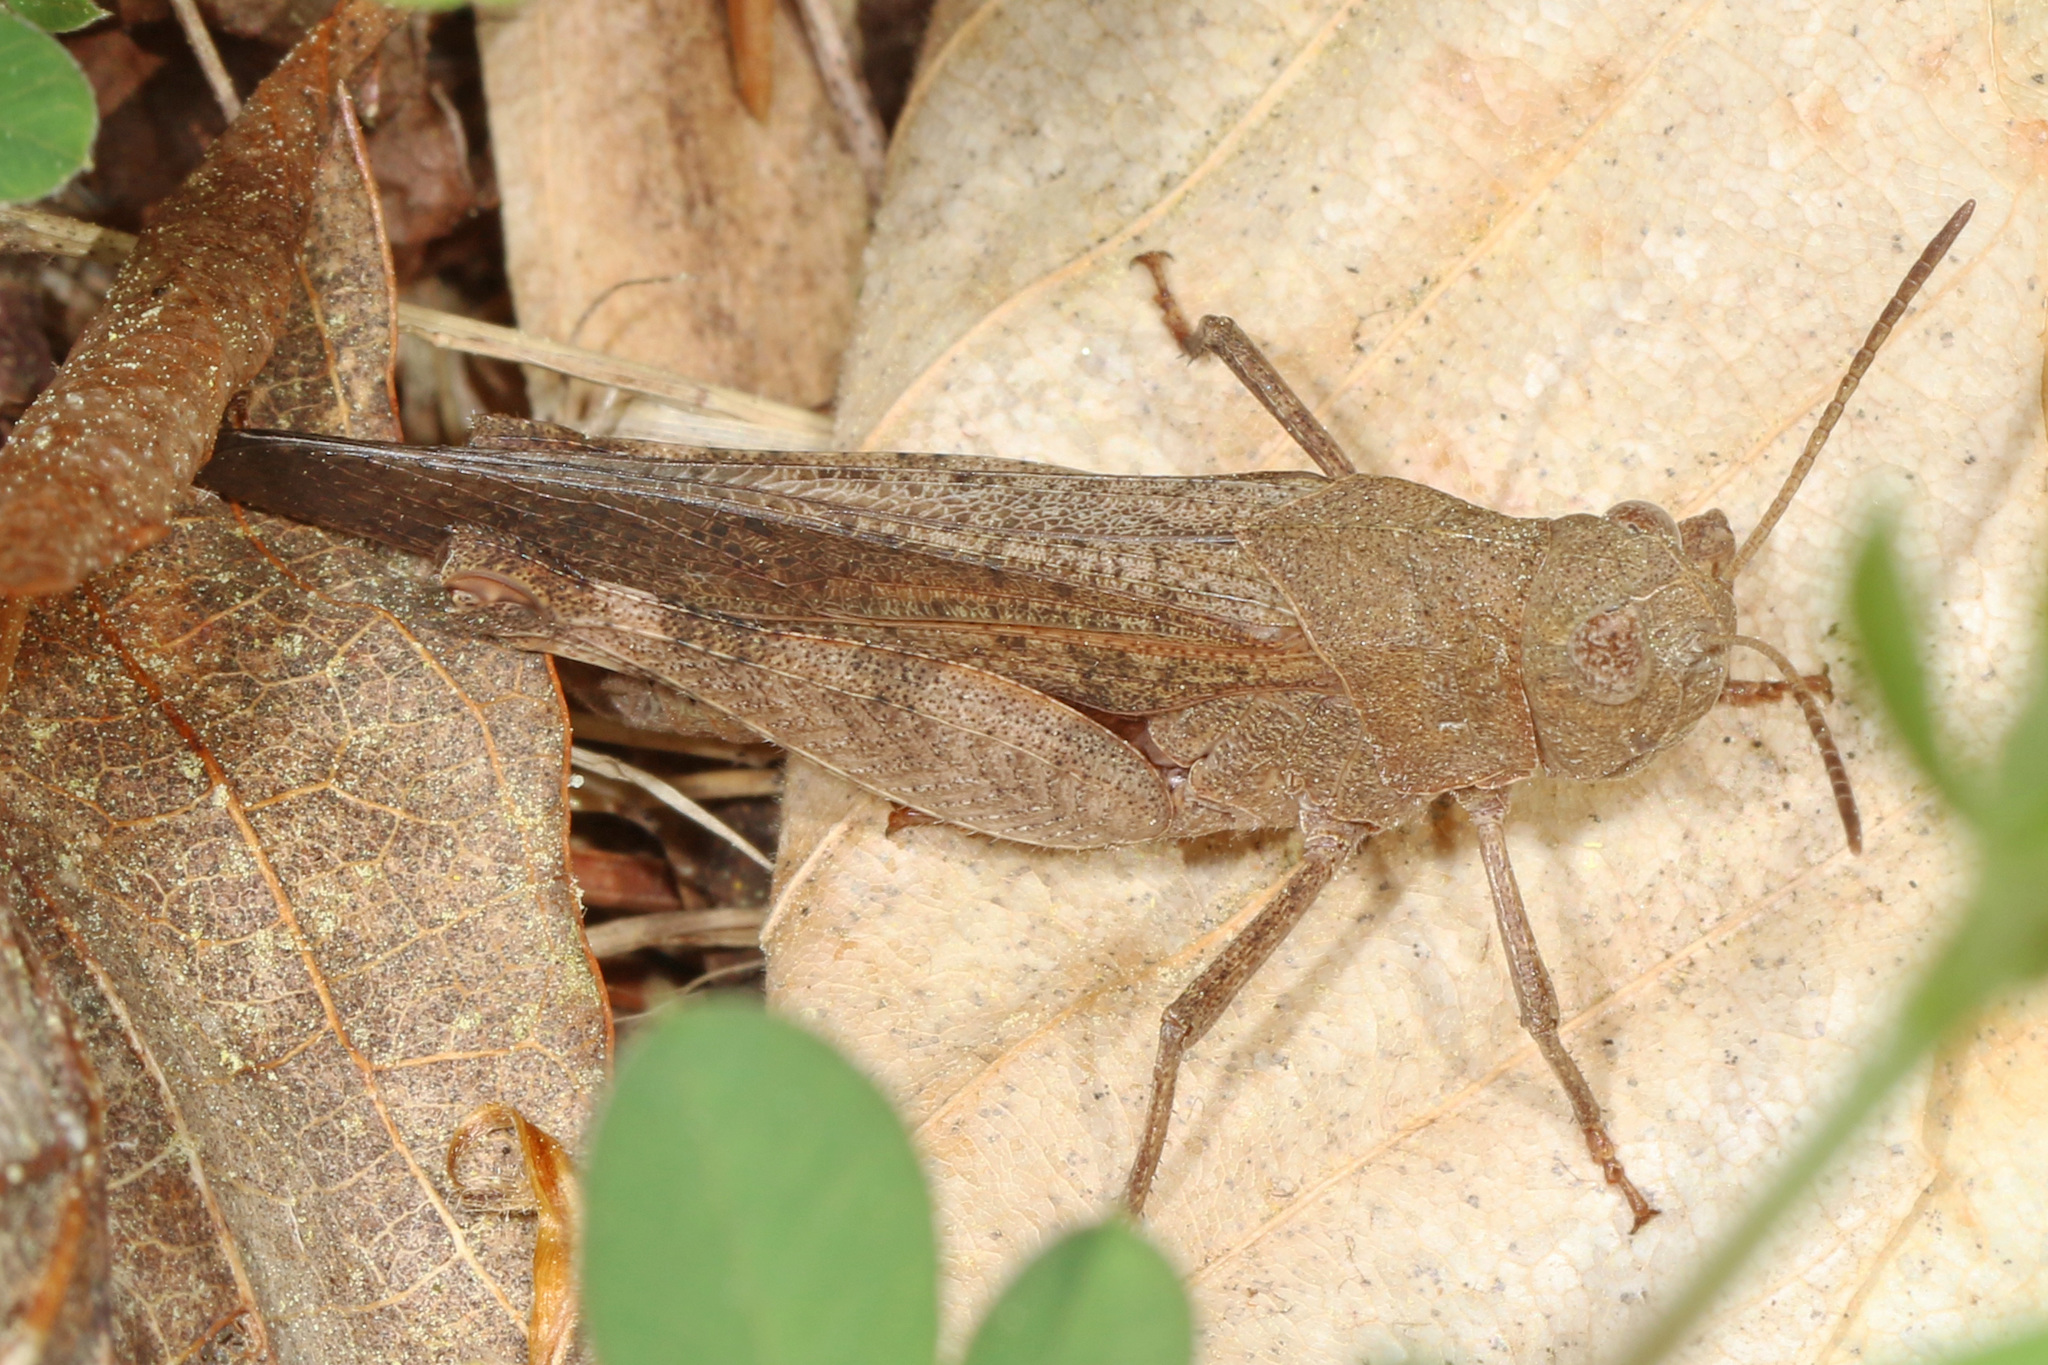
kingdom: Animalia
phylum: Arthropoda
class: Insecta
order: Orthoptera
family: Acrididae
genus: Arphia
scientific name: Arphia sulphurea
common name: Spring yellow-winged locust
